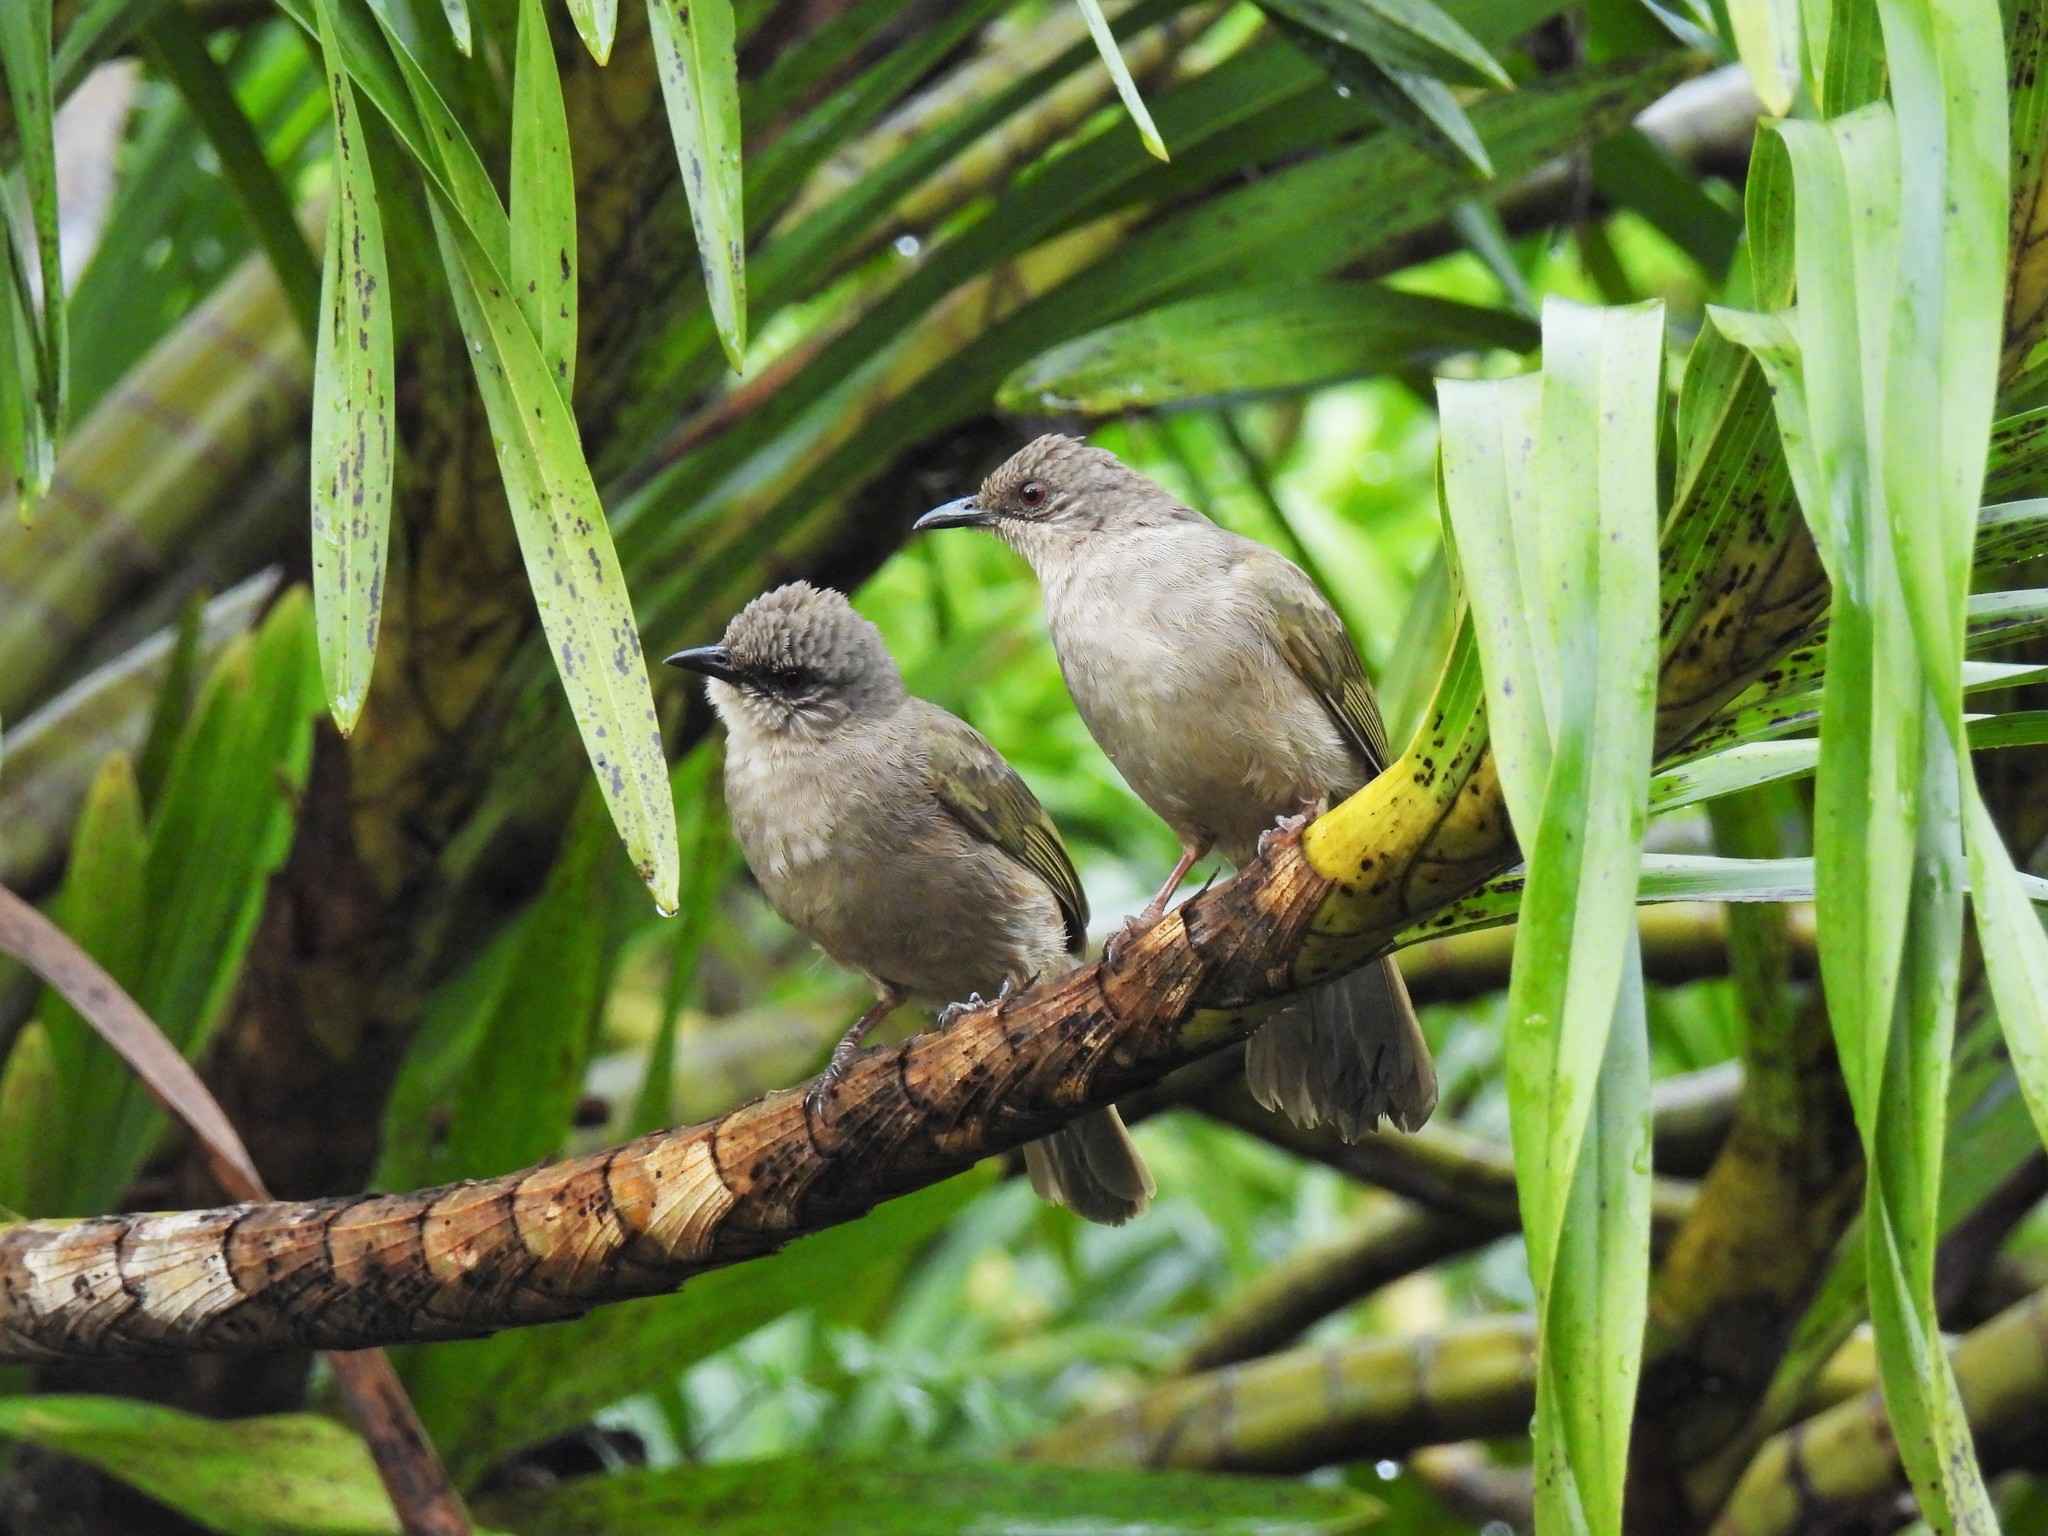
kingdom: Animalia
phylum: Chordata
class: Aves
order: Passeriformes
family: Pycnonotidae
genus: Pycnonotus
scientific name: Pycnonotus plumosus
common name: Olive-winged bulbul
